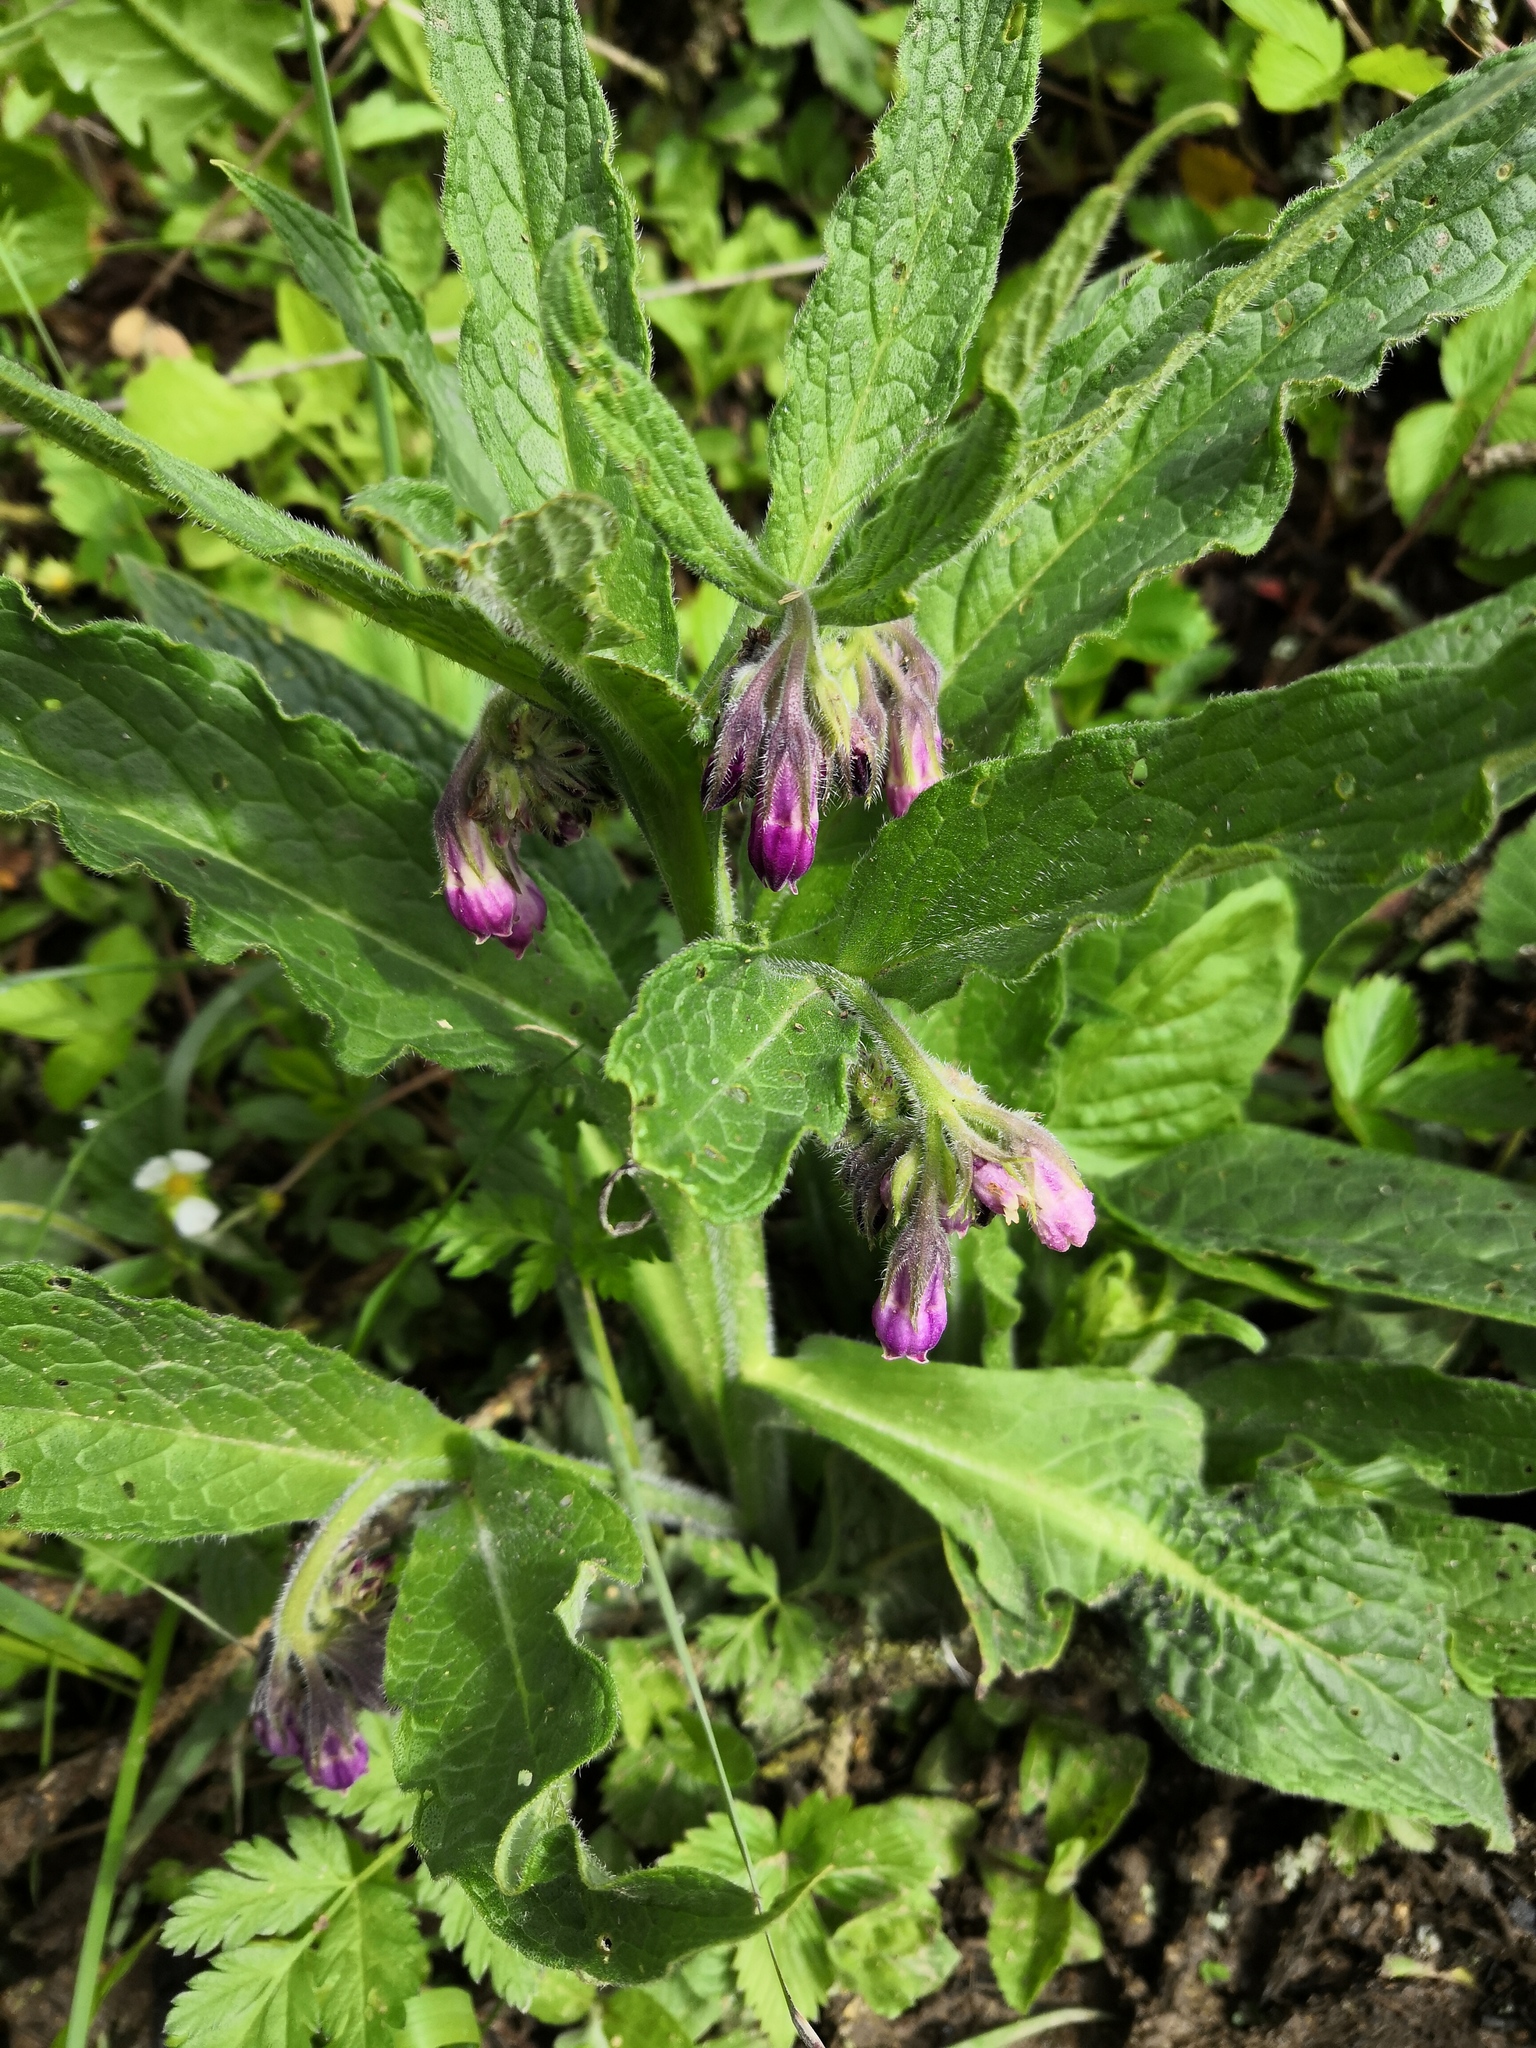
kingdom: Plantae
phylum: Tracheophyta
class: Magnoliopsida
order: Boraginales
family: Boraginaceae
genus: Symphytum
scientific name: Symphytum officinale
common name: Common comfrey
